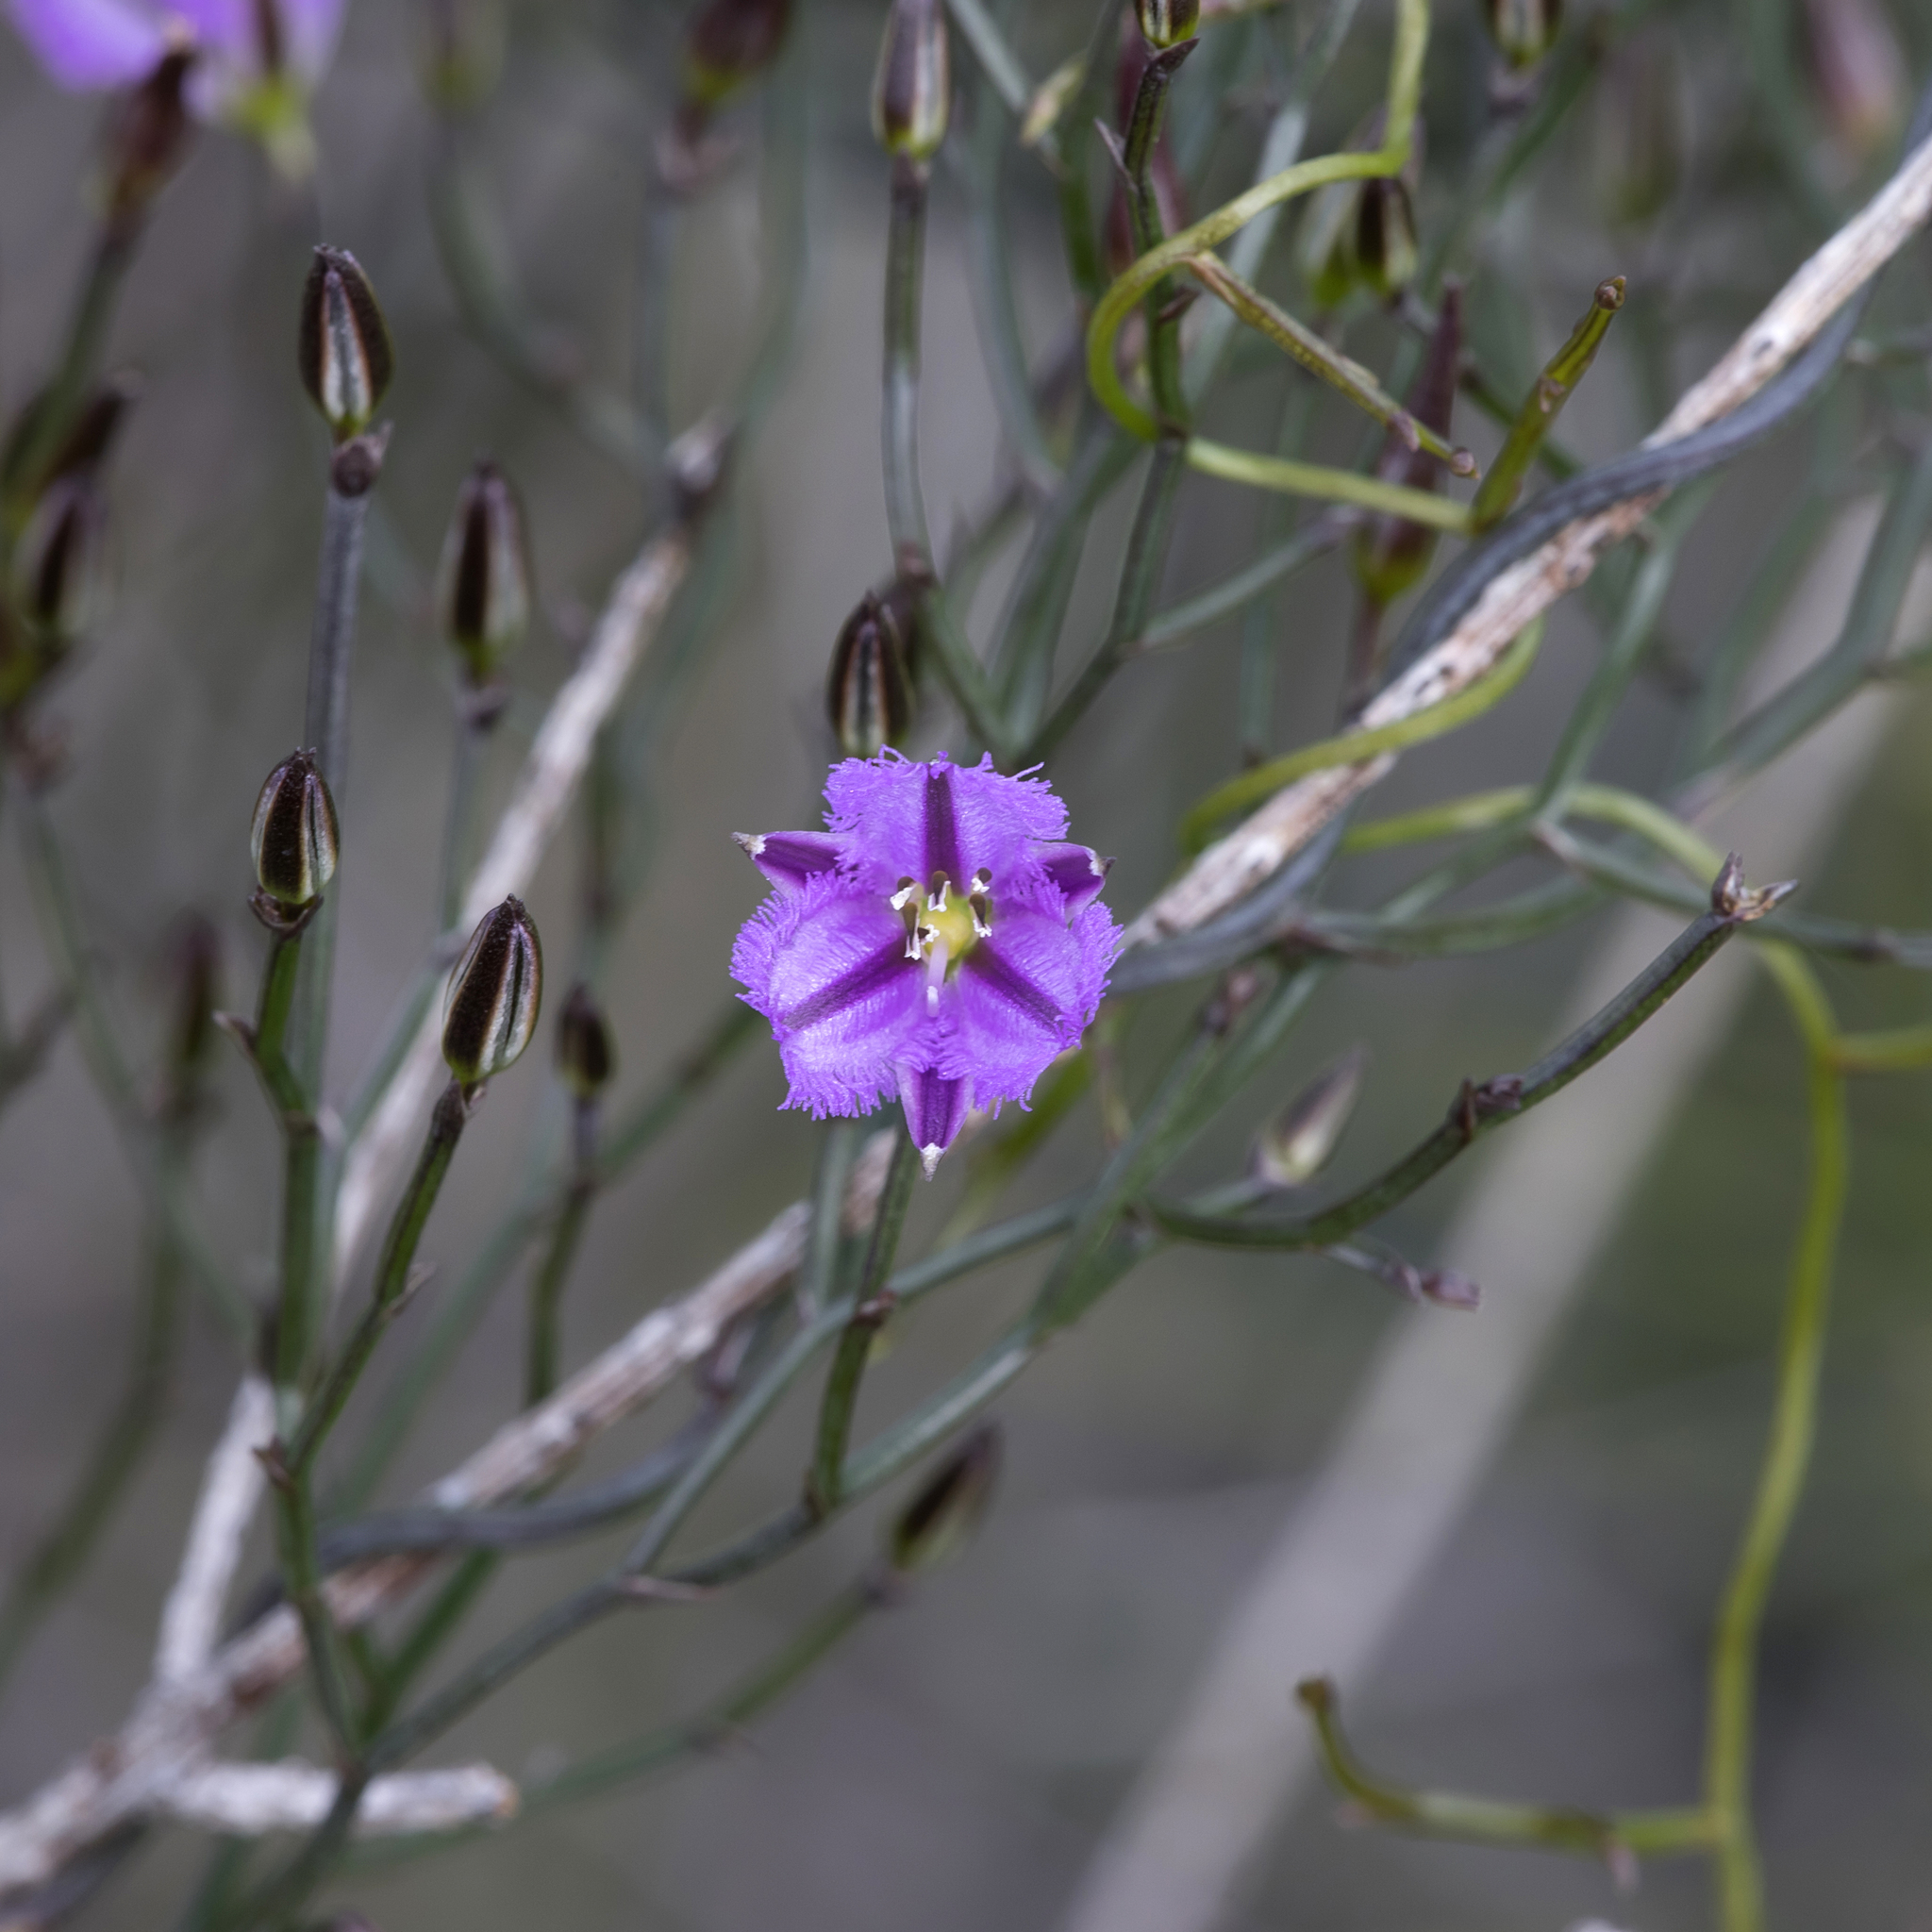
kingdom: Plantae
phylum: Tracheophyta
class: Liliopsida
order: Asparagales
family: Asparagaceae
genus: Thysanotus
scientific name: Thysanotus patersonii
